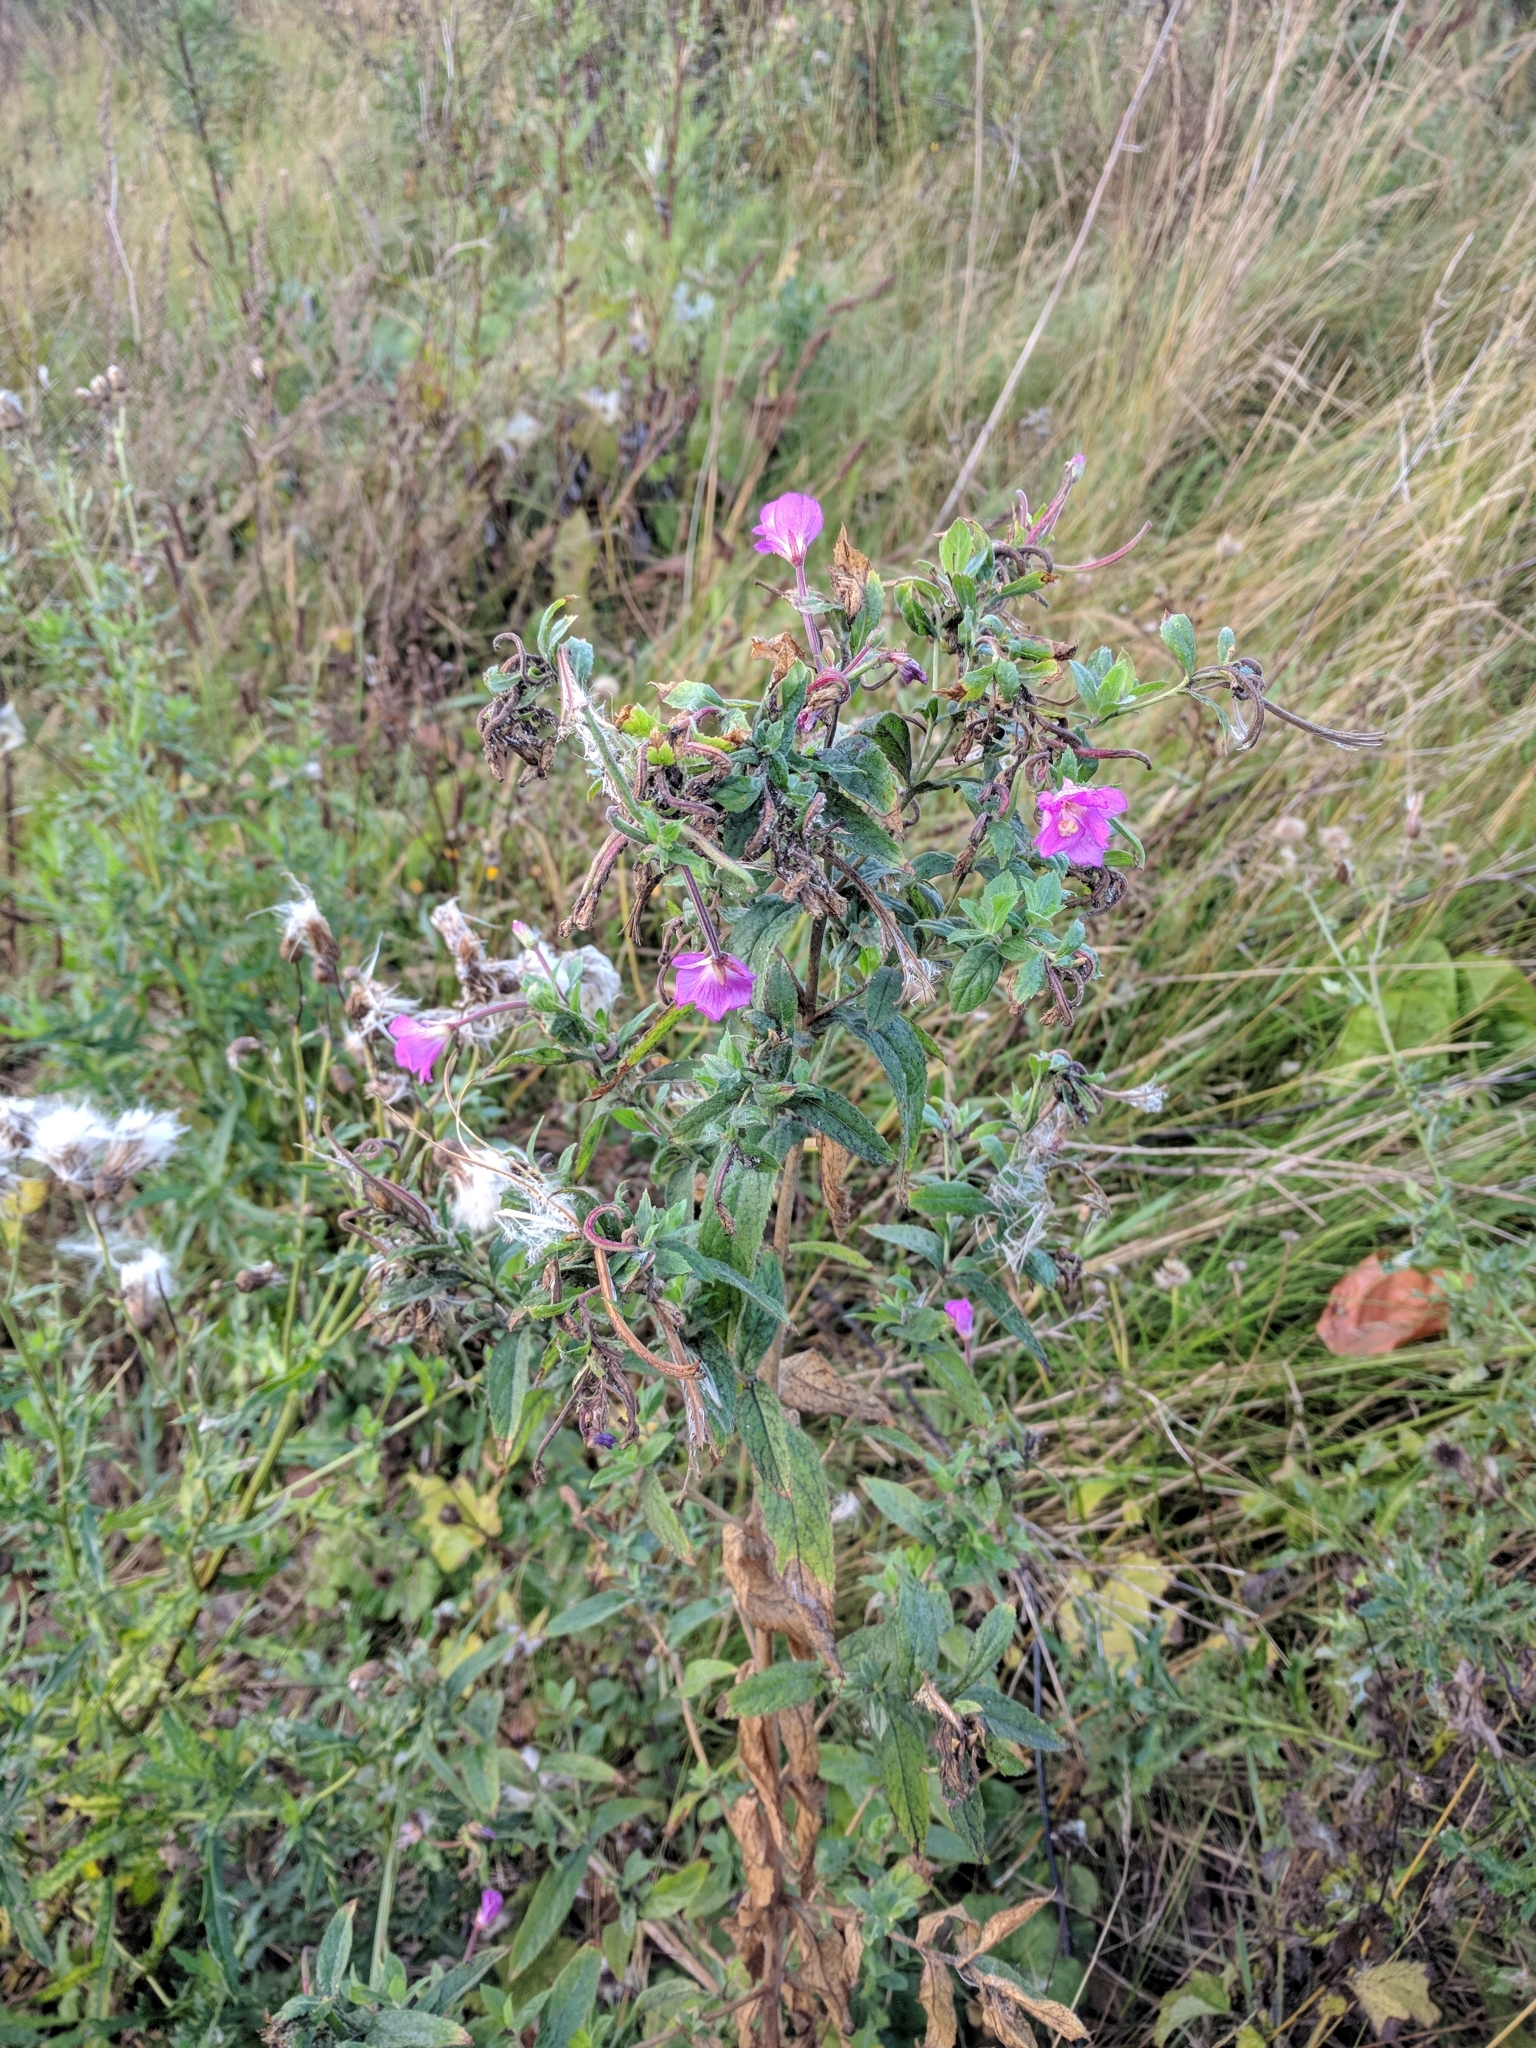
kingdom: Plantae
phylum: Tracheophyta
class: Magnoliopsida
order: Myrtales
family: Onagraceae
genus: Epilobium
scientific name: Epilobium hirsutum
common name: Great willowherb
